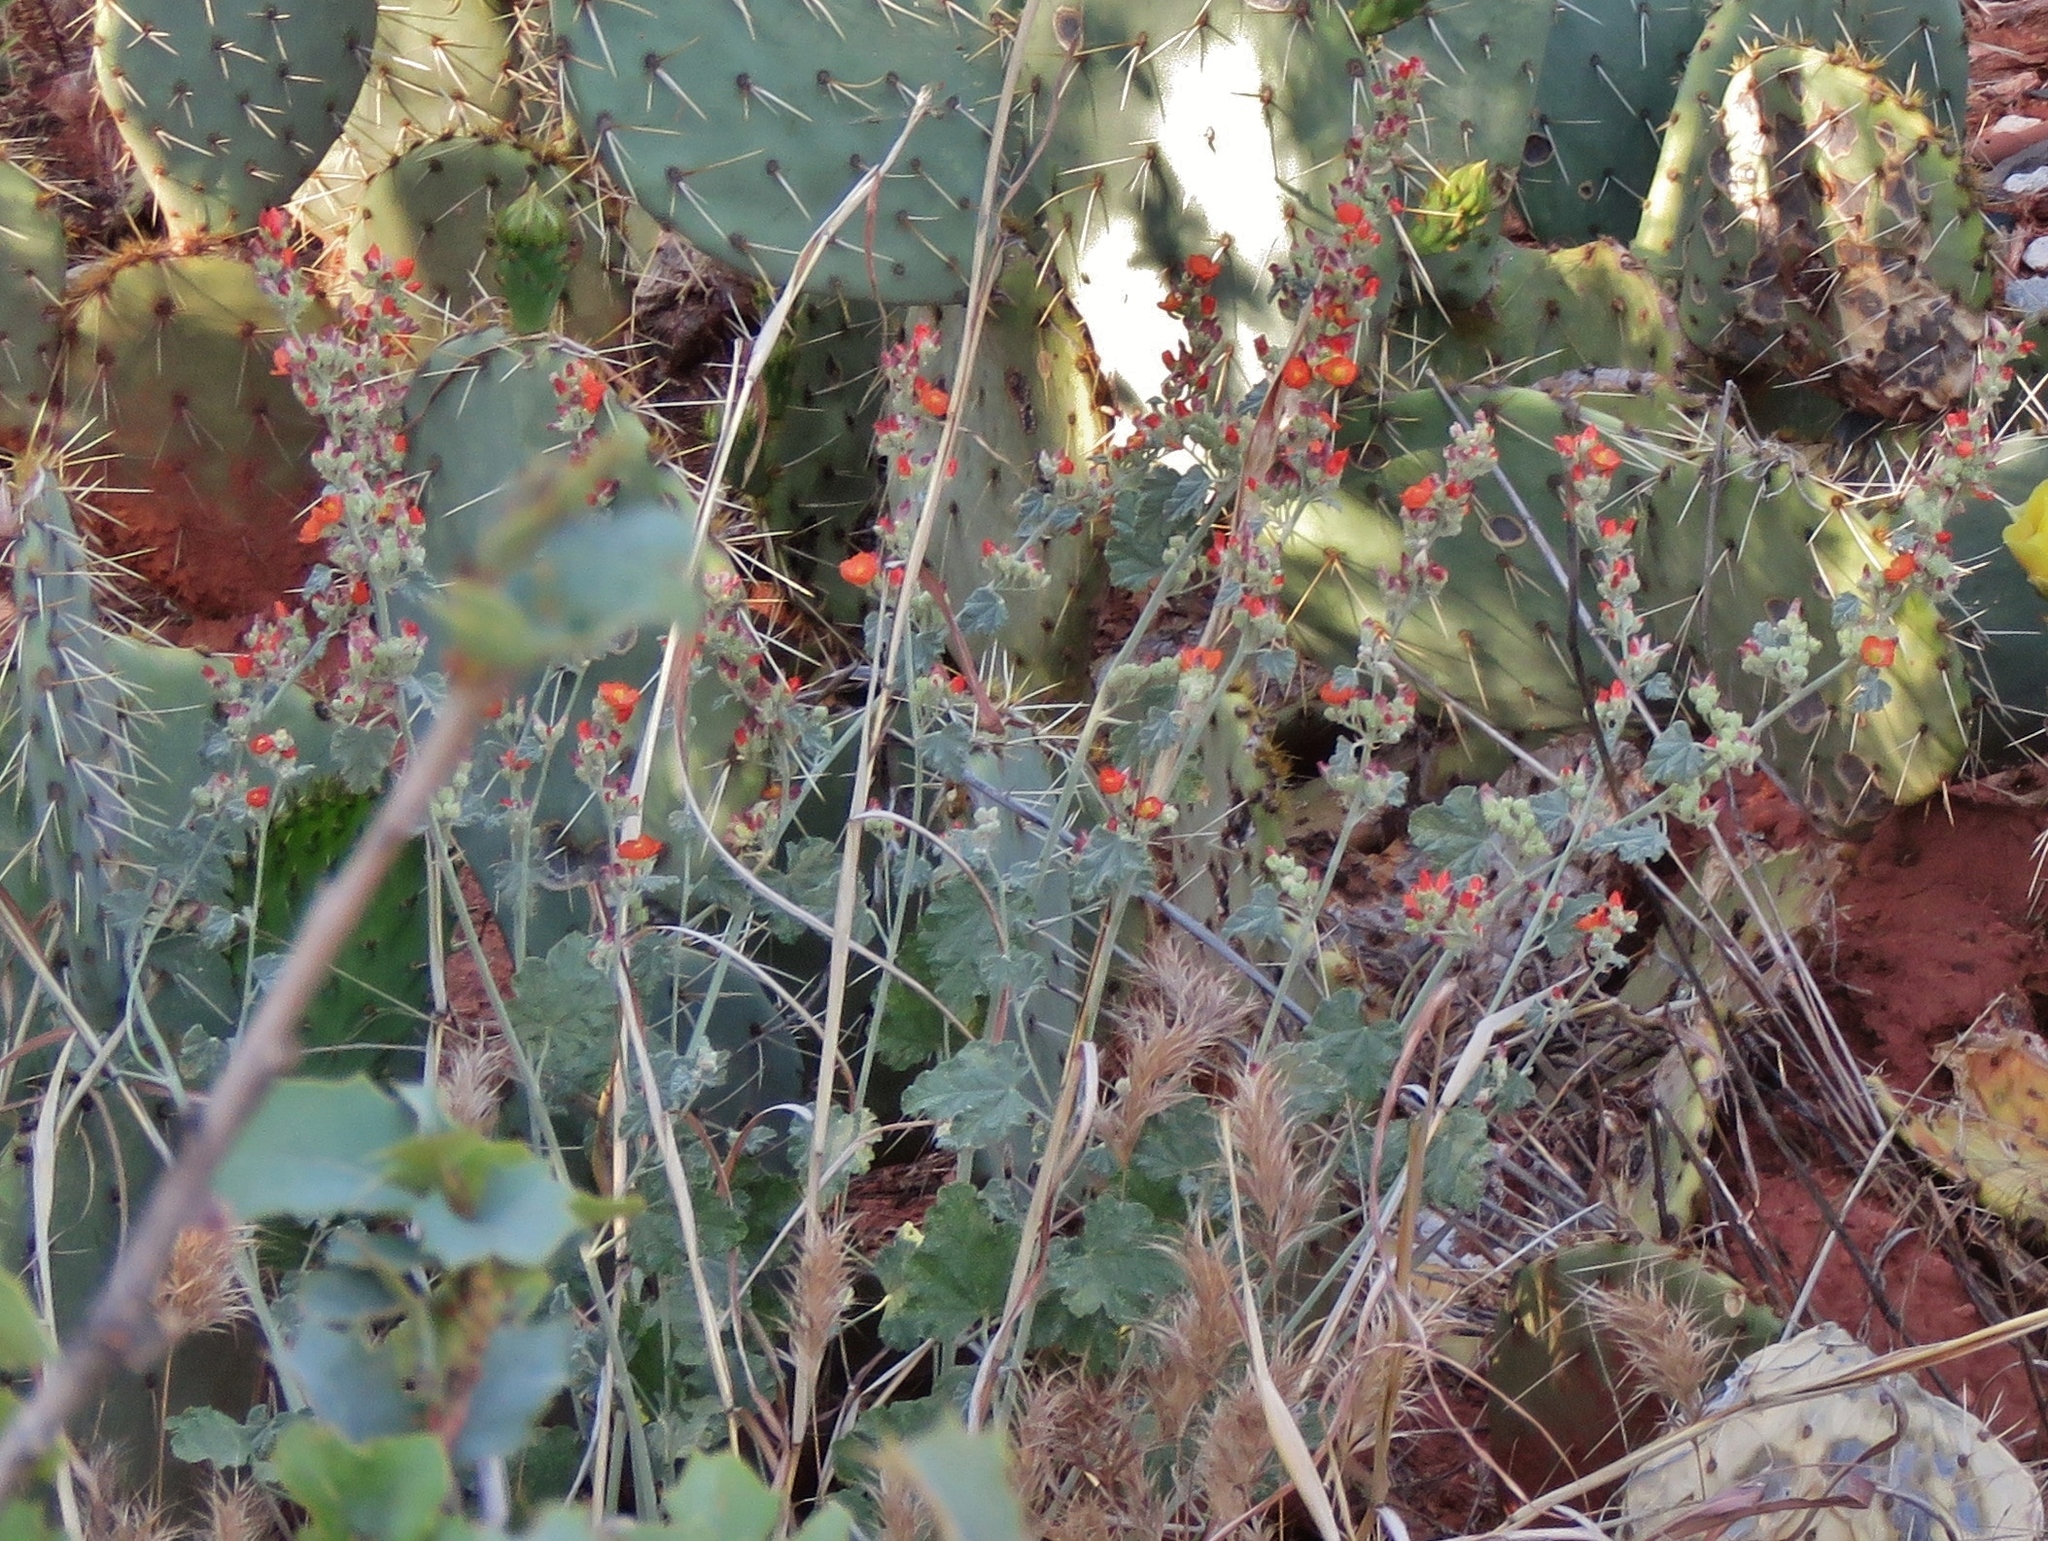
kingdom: Plantae
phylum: Tracheophyta
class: Magnoliopsida
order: Malvales
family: Malvaceae
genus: Sphaeralcea
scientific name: Sphaeralcea parvifolia
